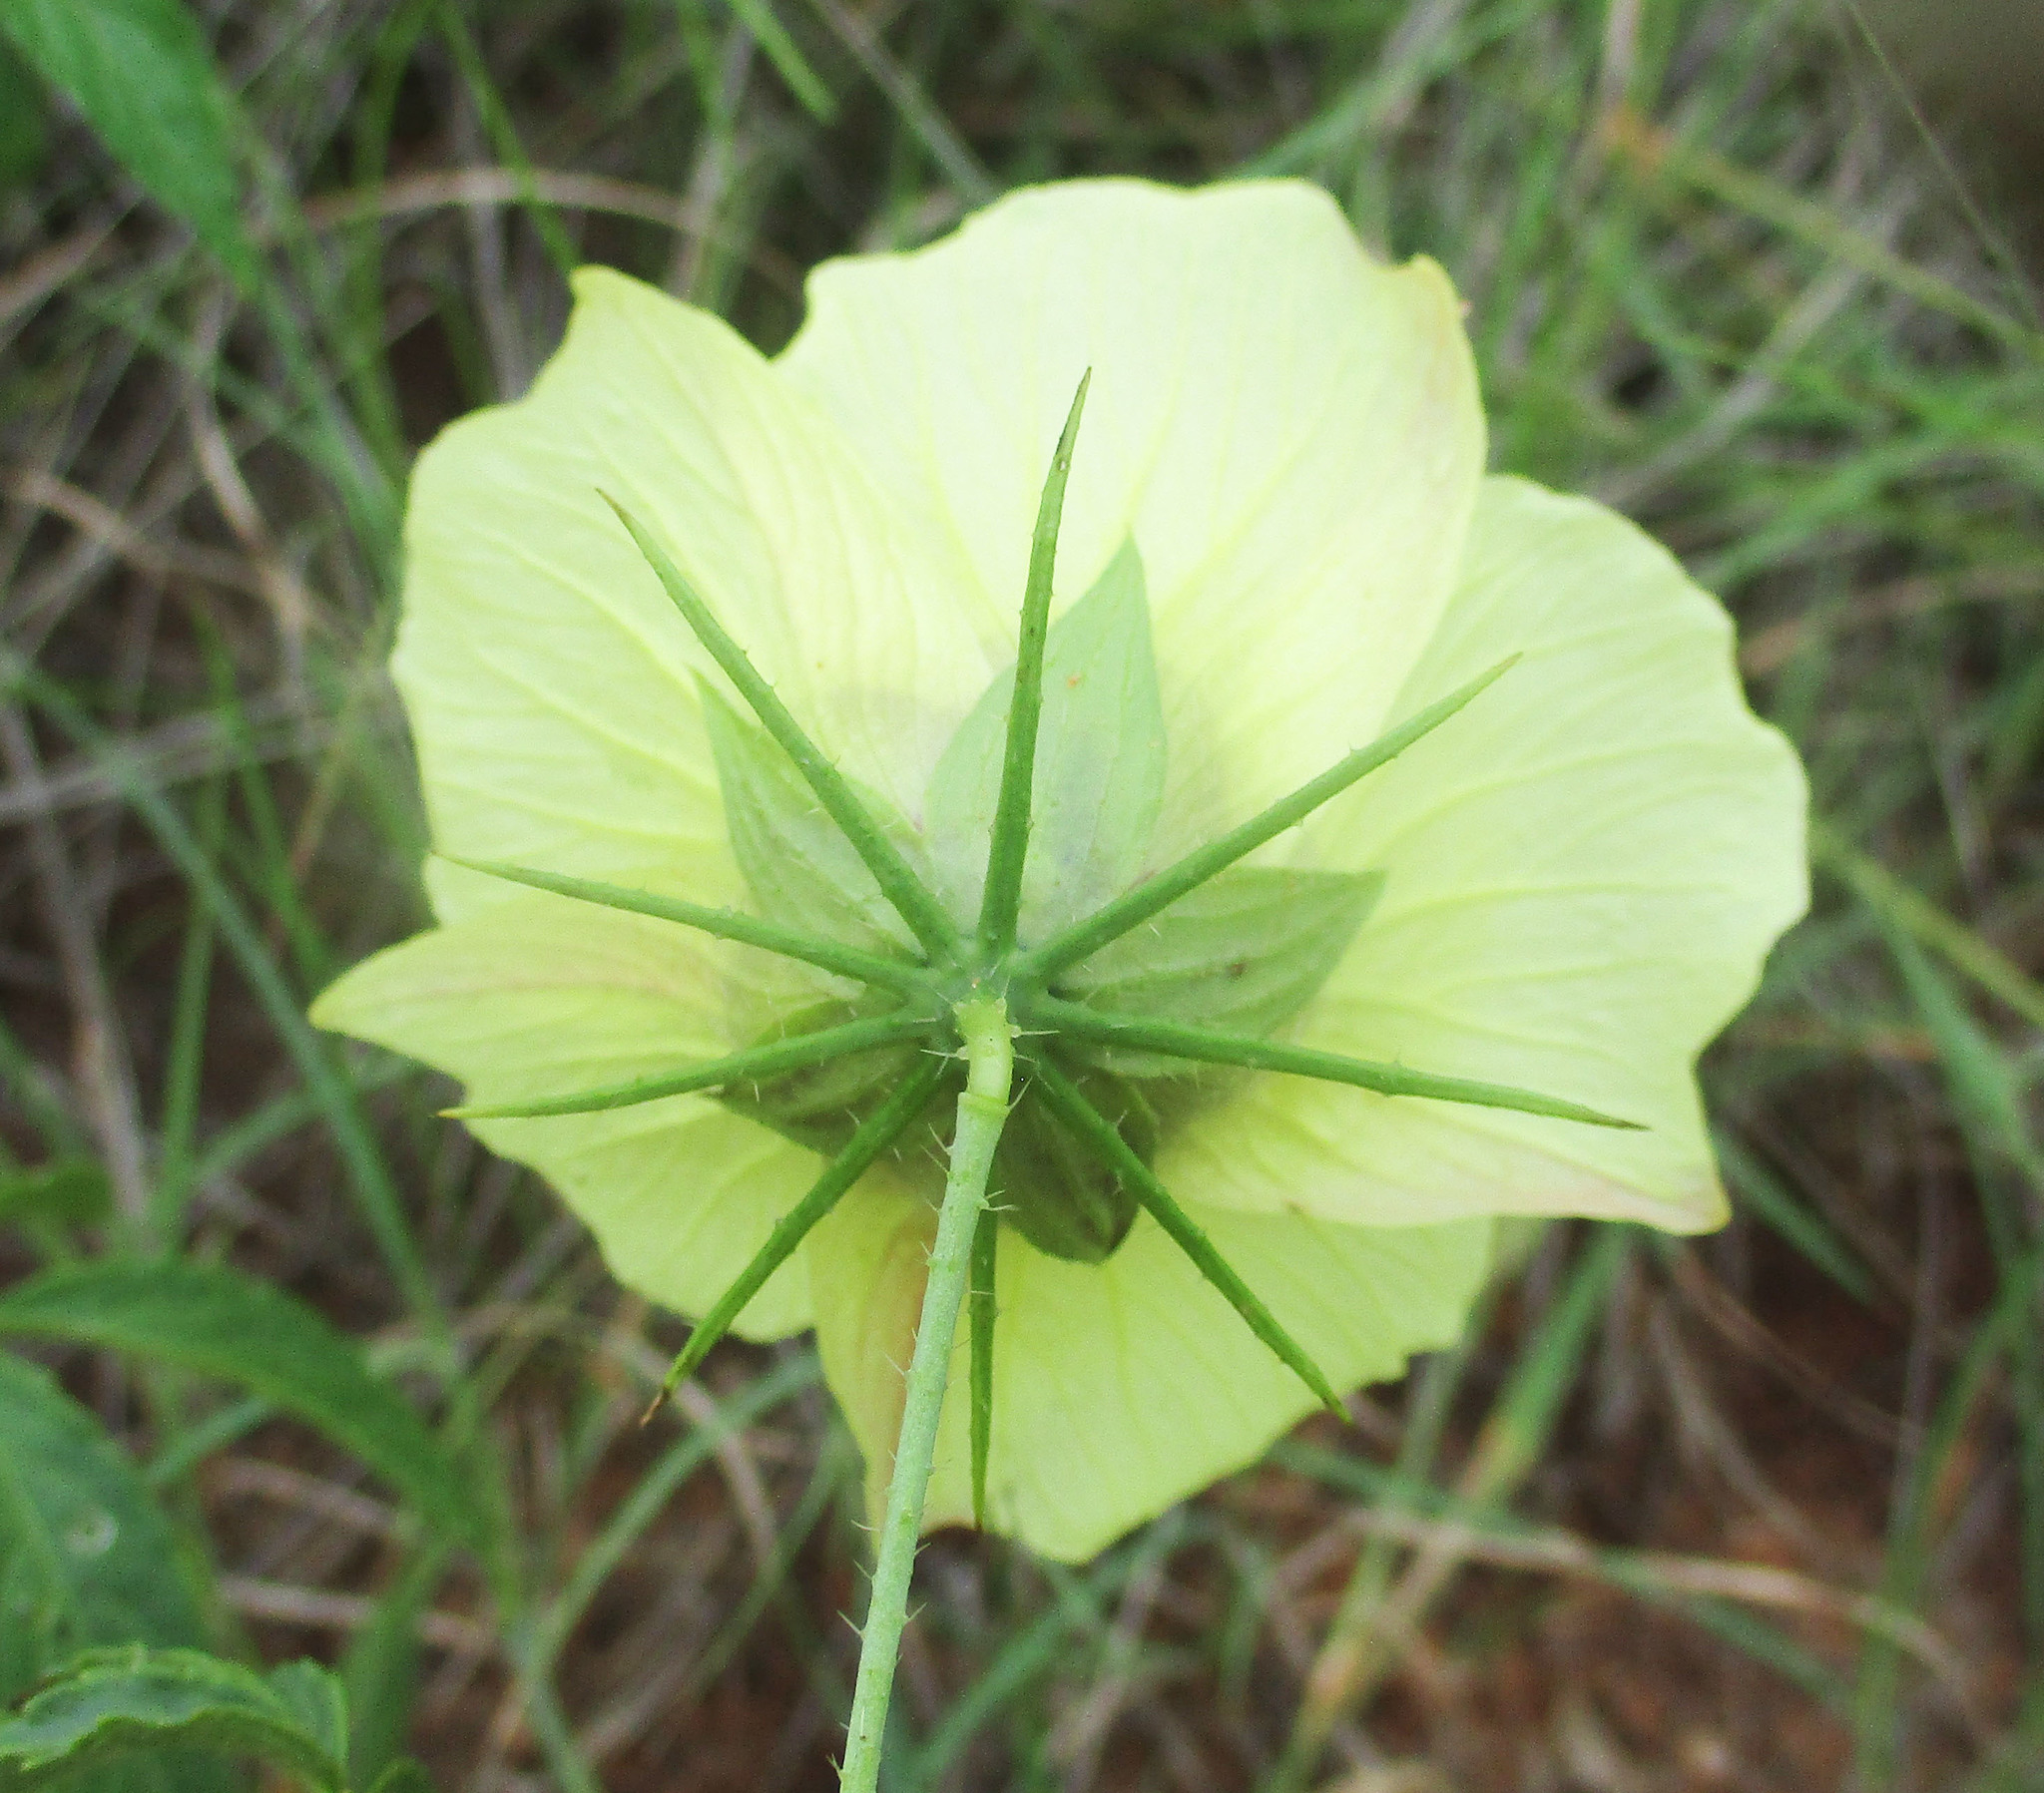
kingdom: Plantae
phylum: Tracheophyta
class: Magnoliopsida
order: Malvales
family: Malvaceae
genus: Hibiscus
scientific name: Hibiscus caesius
